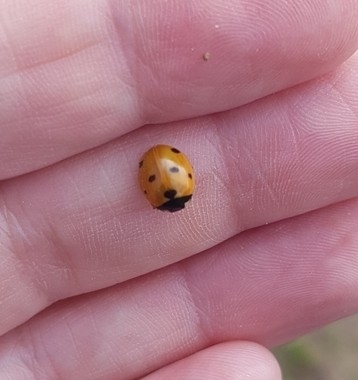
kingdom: Animalia
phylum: Arthropoda
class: Insecta
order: Coleoptera
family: Coccinellidae
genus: Coccinella
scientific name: Coccinella septempunctata
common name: Sevenspotted lady beetle
